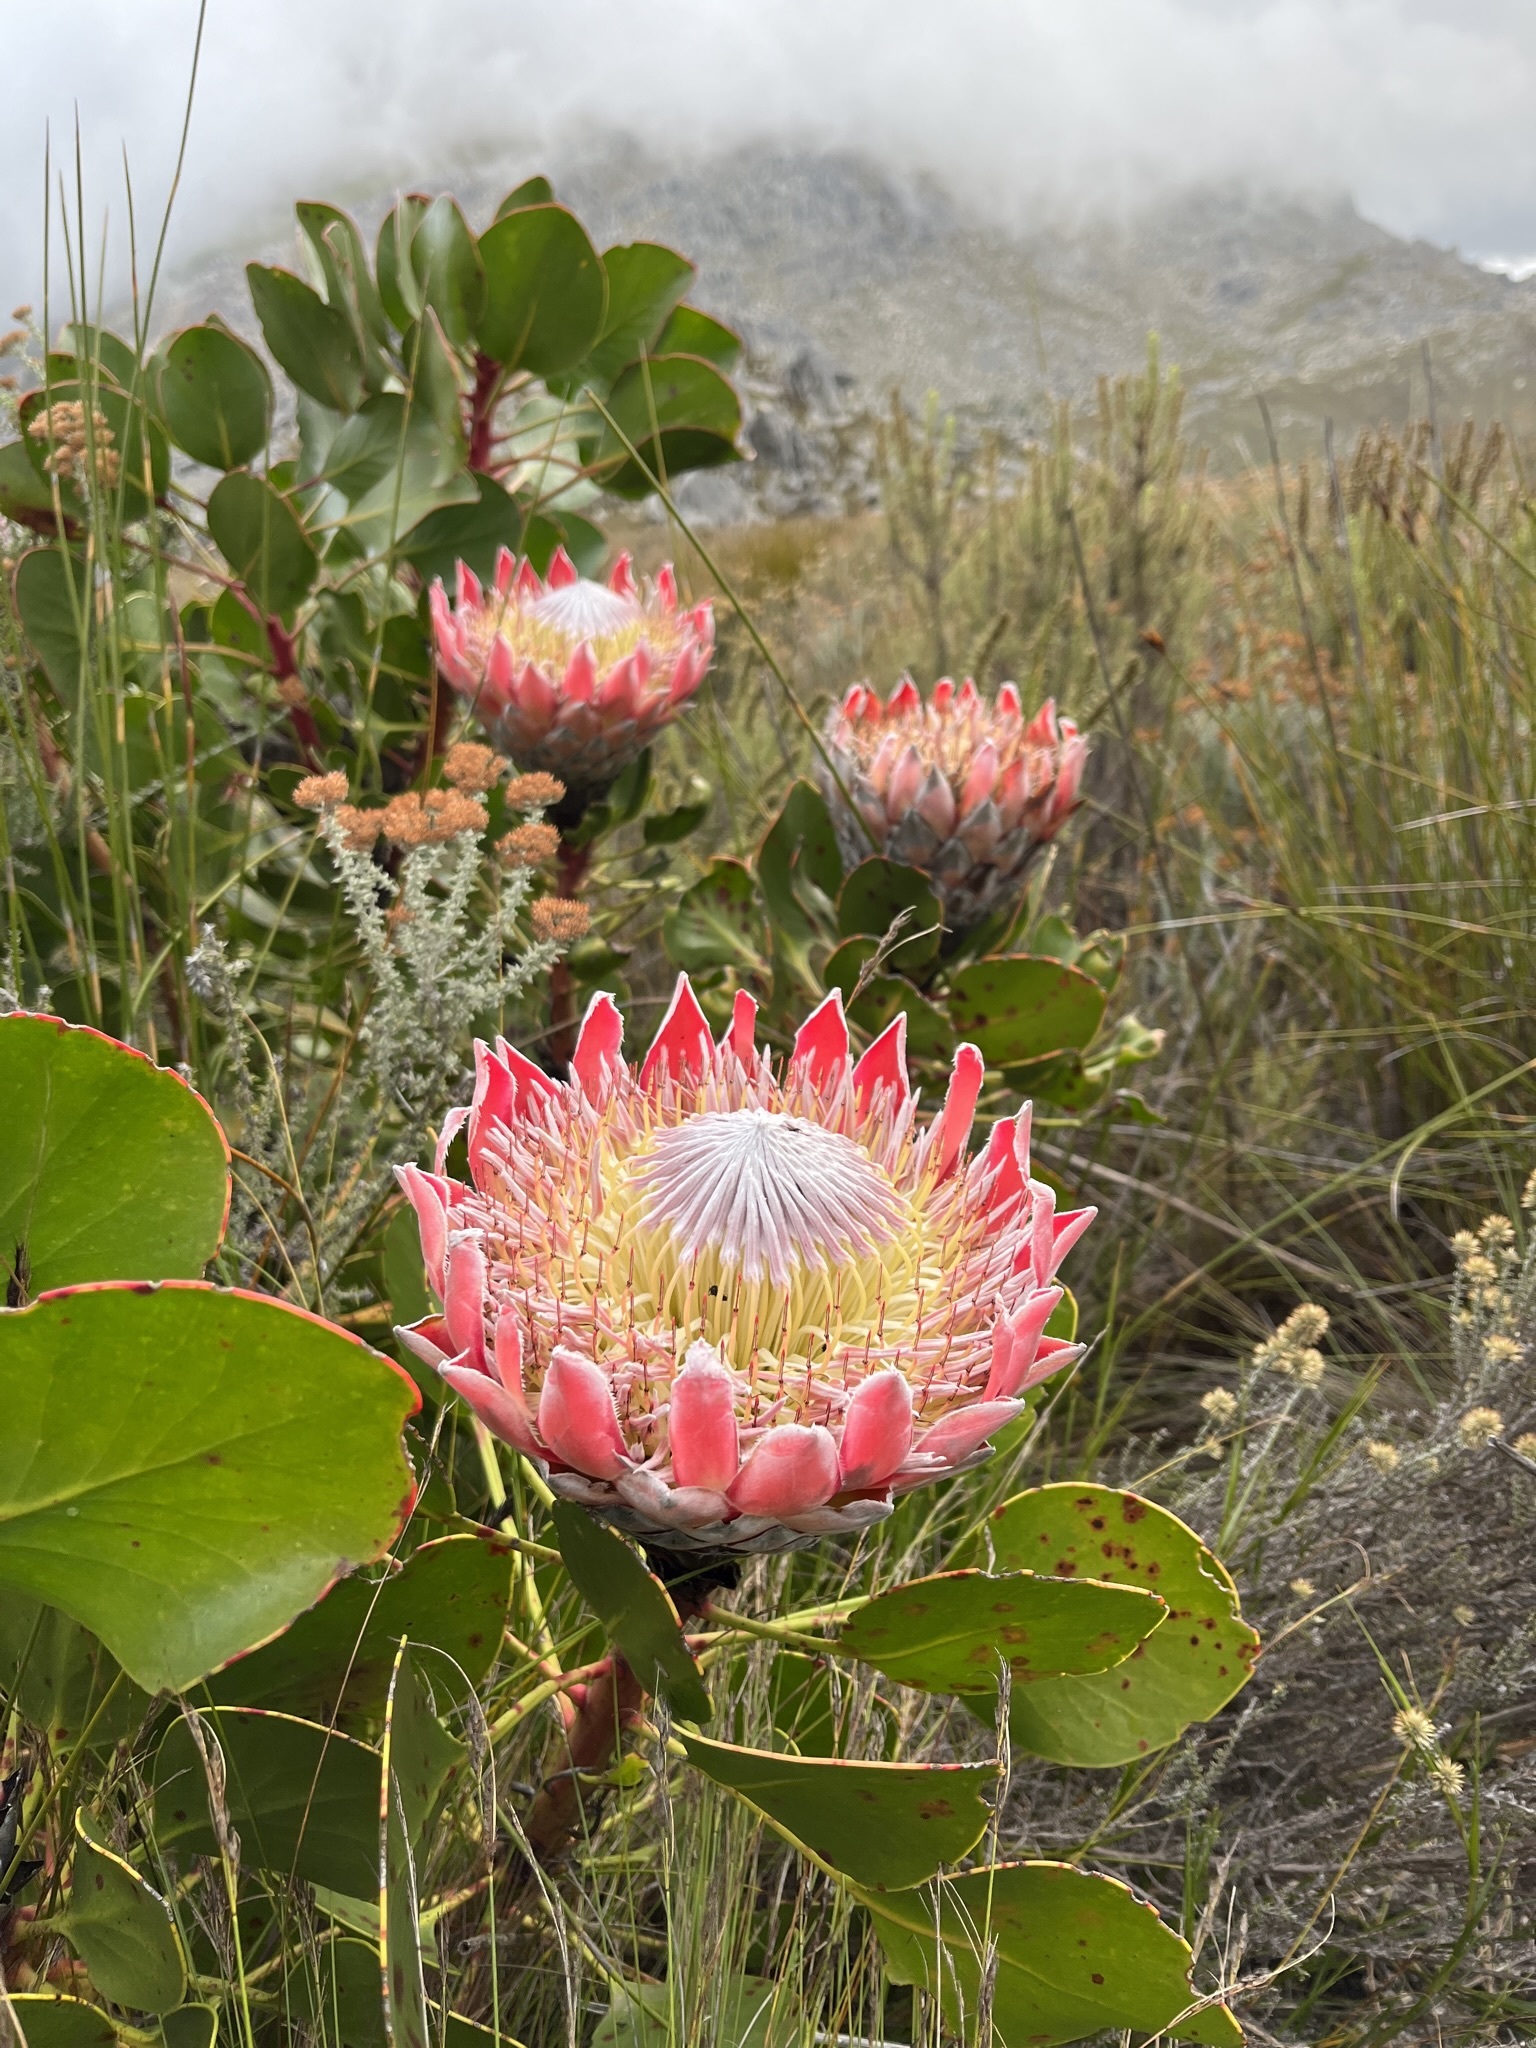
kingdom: Plantae
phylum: Tracheophyta
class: Magnoliopsida
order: Proteales
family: Proteaceae
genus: Protea
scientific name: Protea cynaroides
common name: King protea
